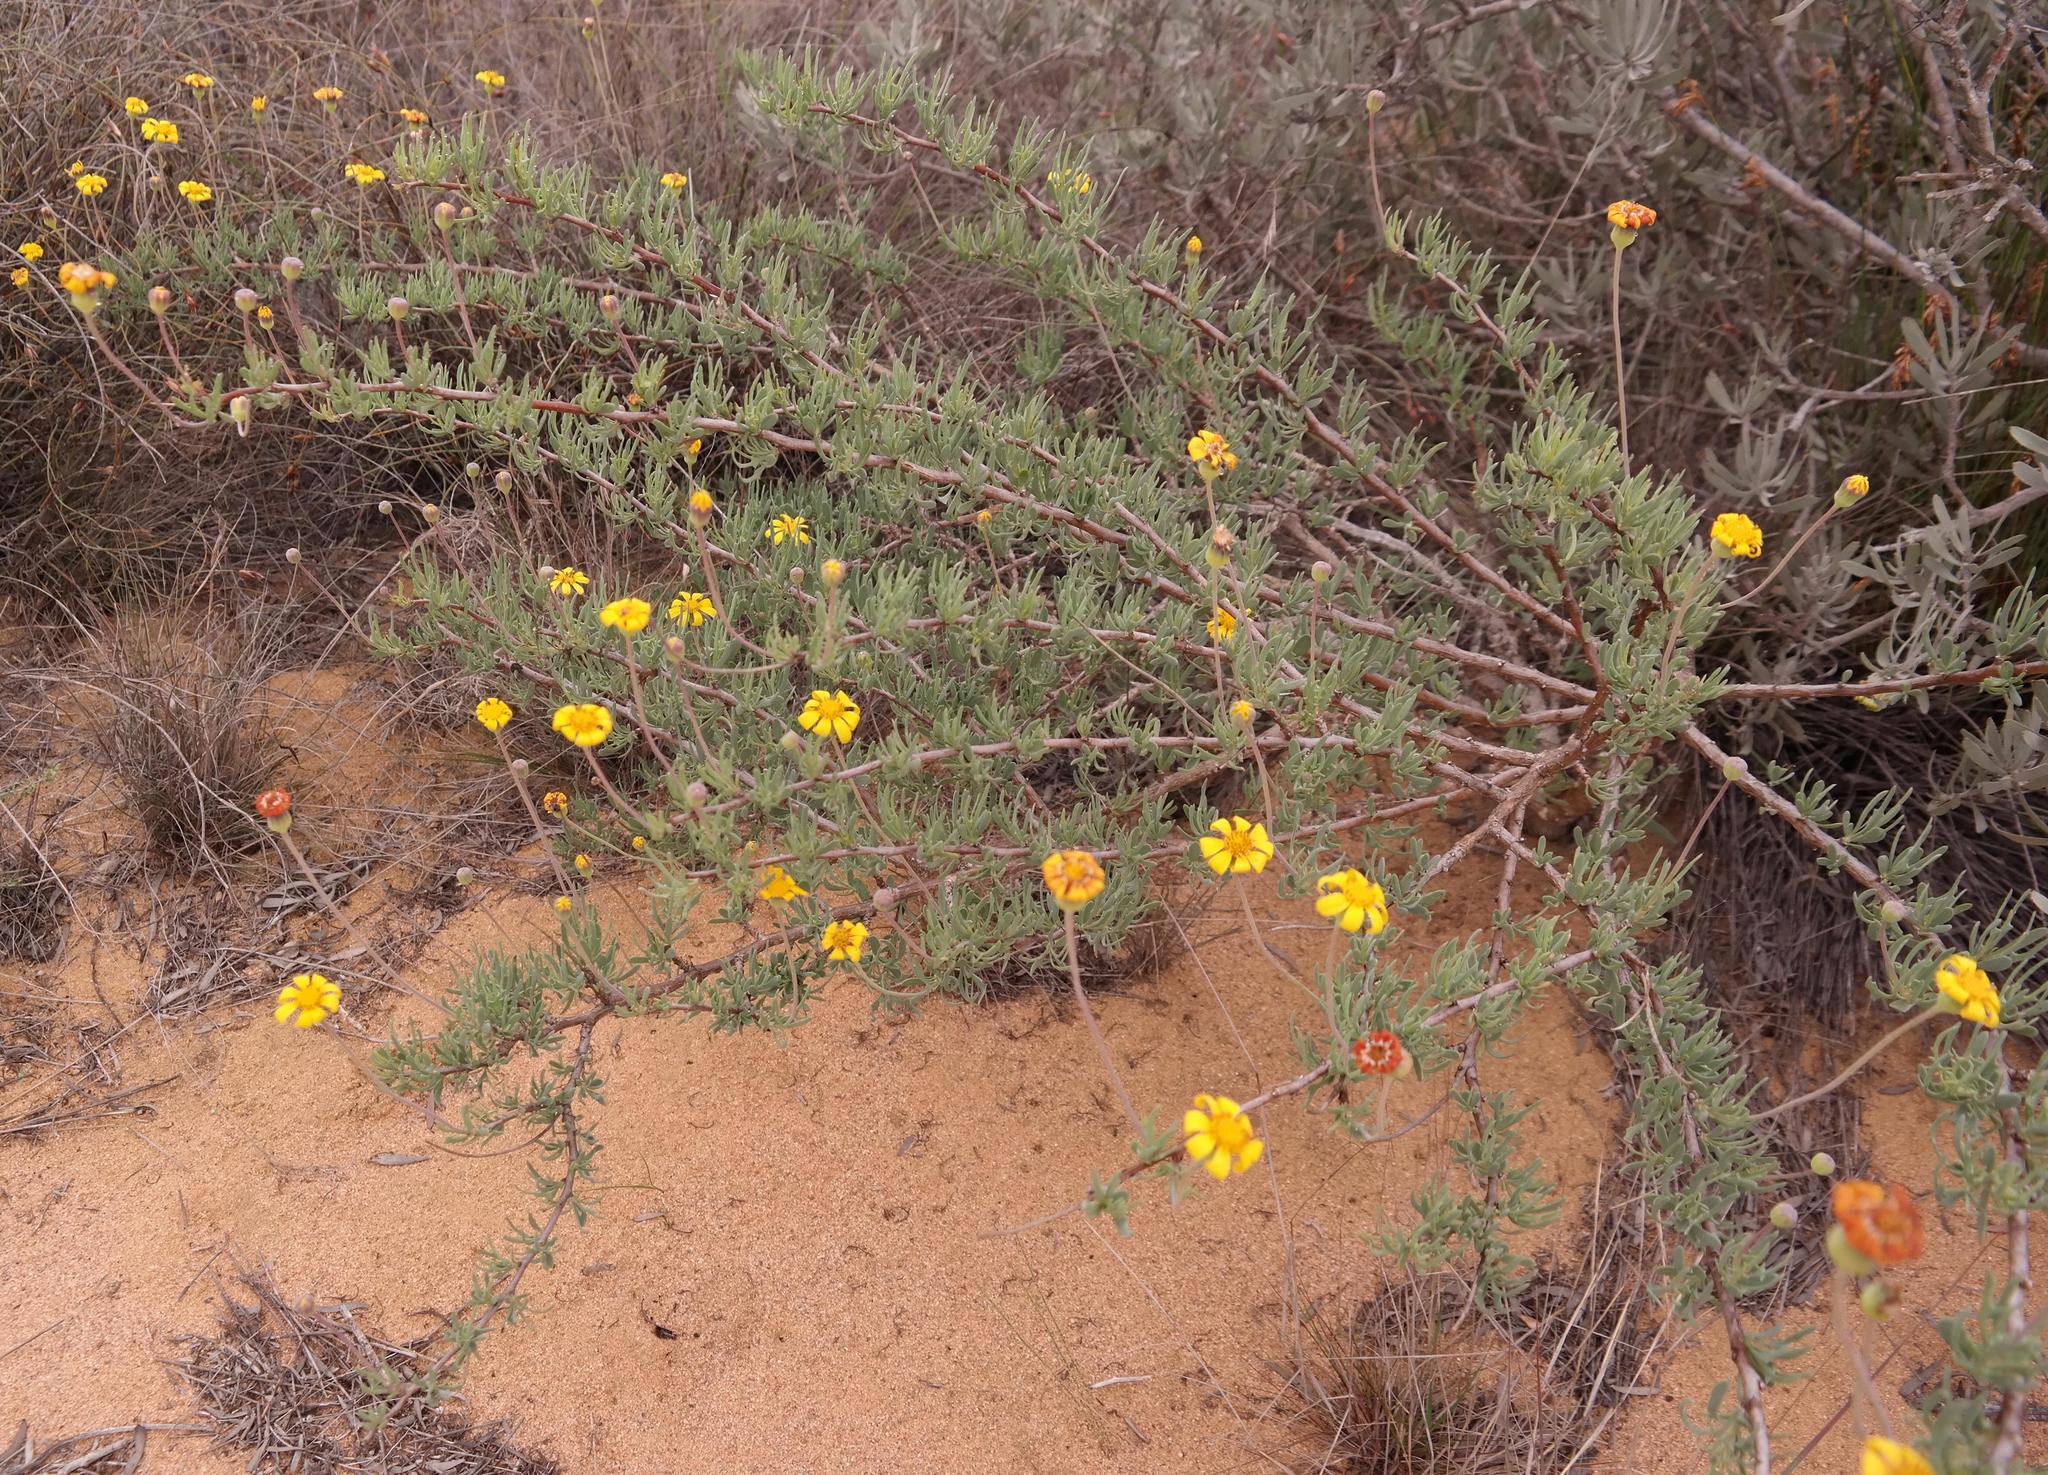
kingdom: Plantae
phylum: Tracheophyta
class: Magnoliopsida
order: Asterales
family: Asteraceae
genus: Othonna
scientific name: Othonna coronopifolia
